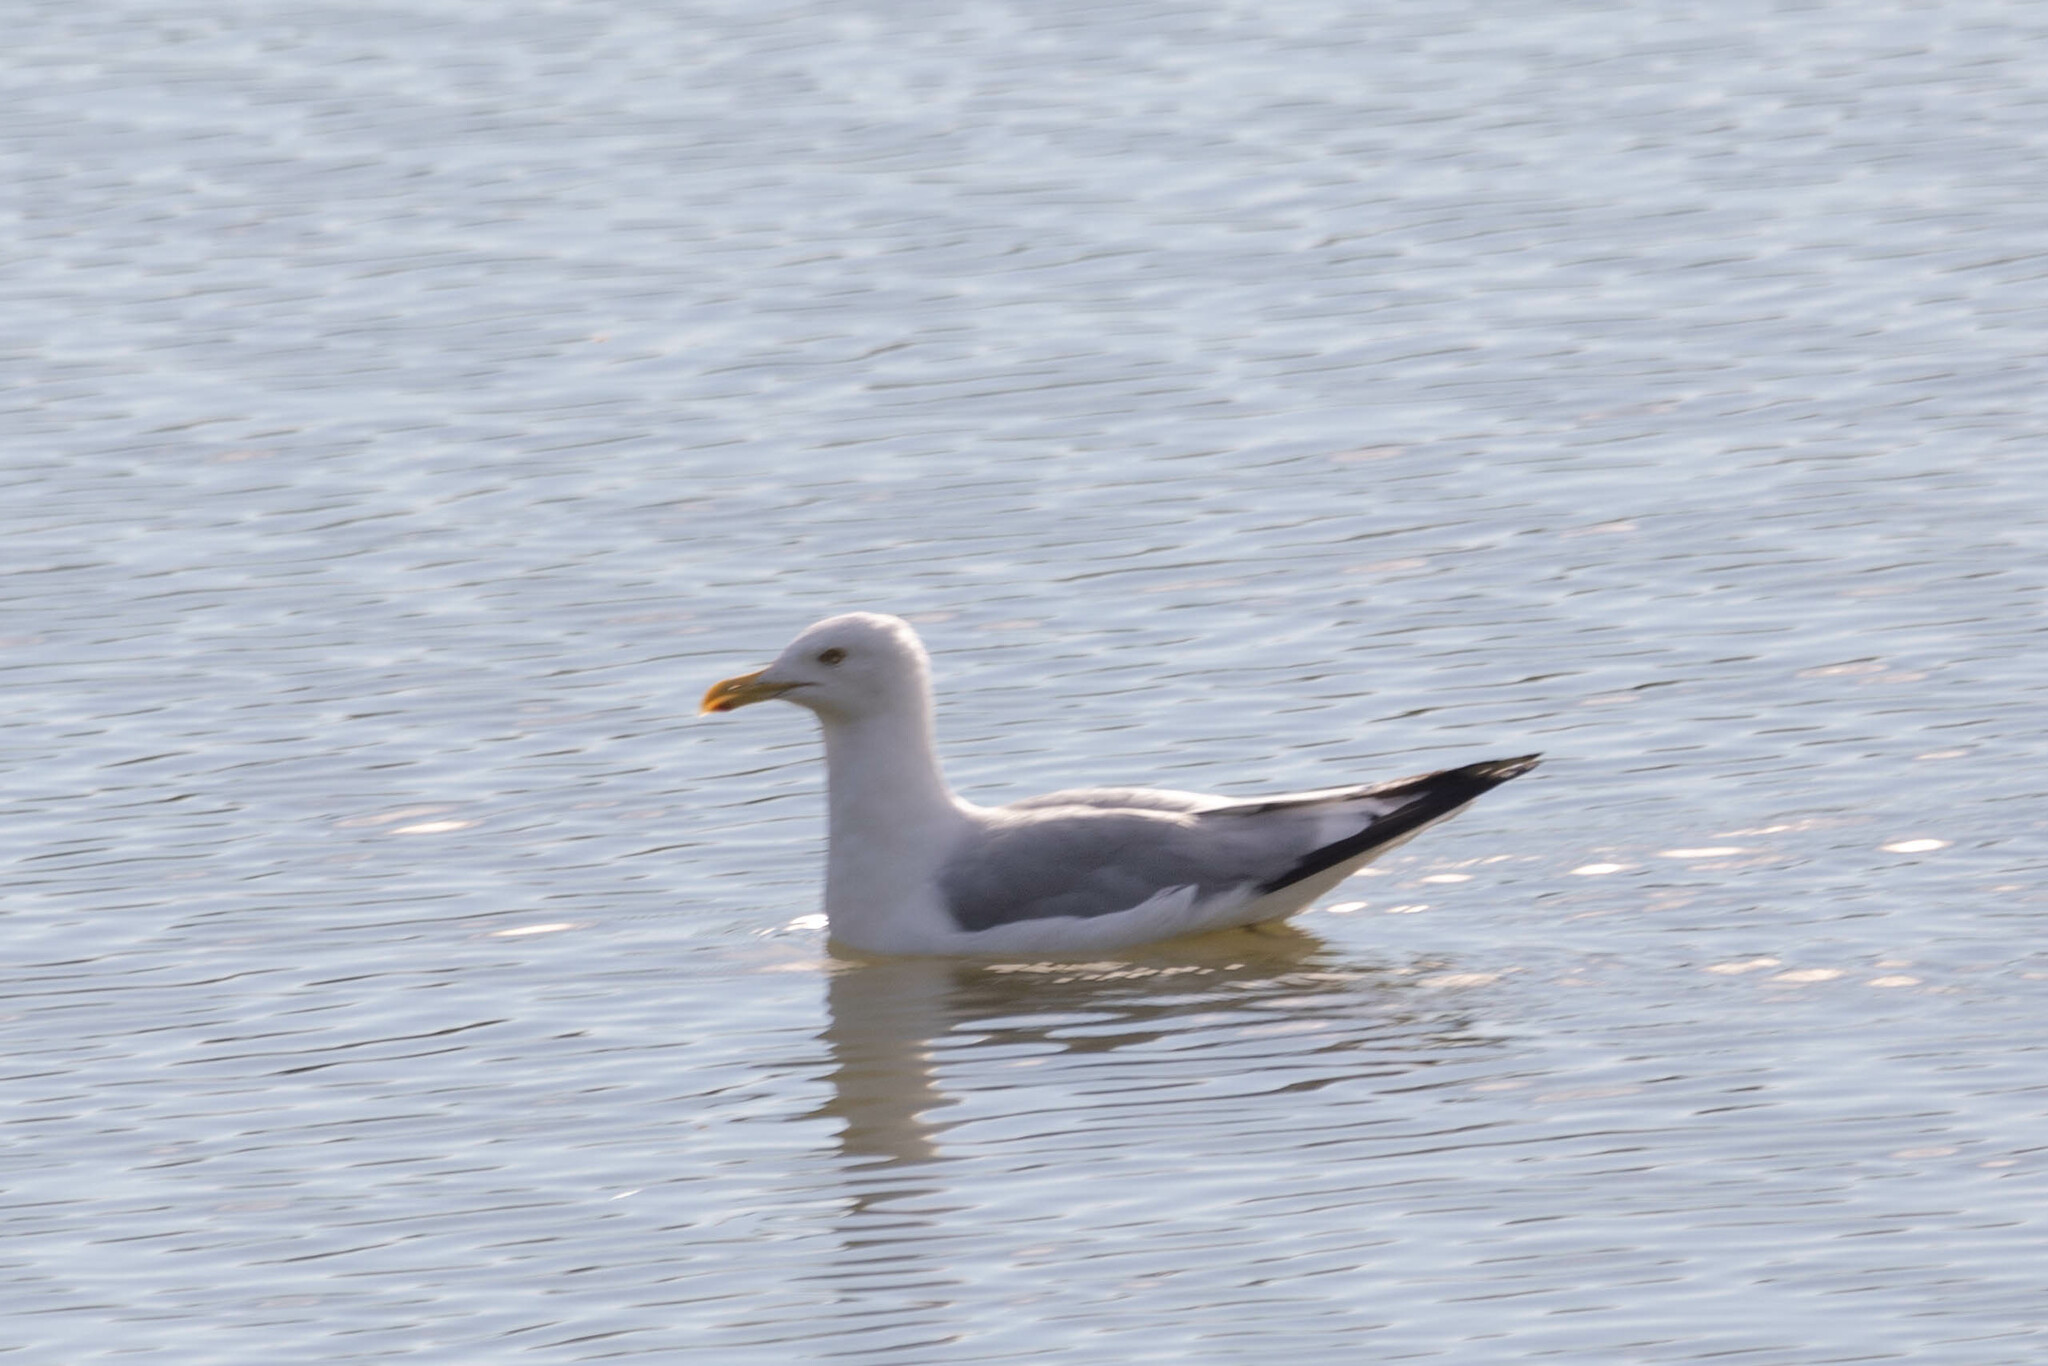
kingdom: Animalia
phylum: Chordata
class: Aves
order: Charadriiformes
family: Laridae
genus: Larus
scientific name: Larus argentatus
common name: Herring gull
